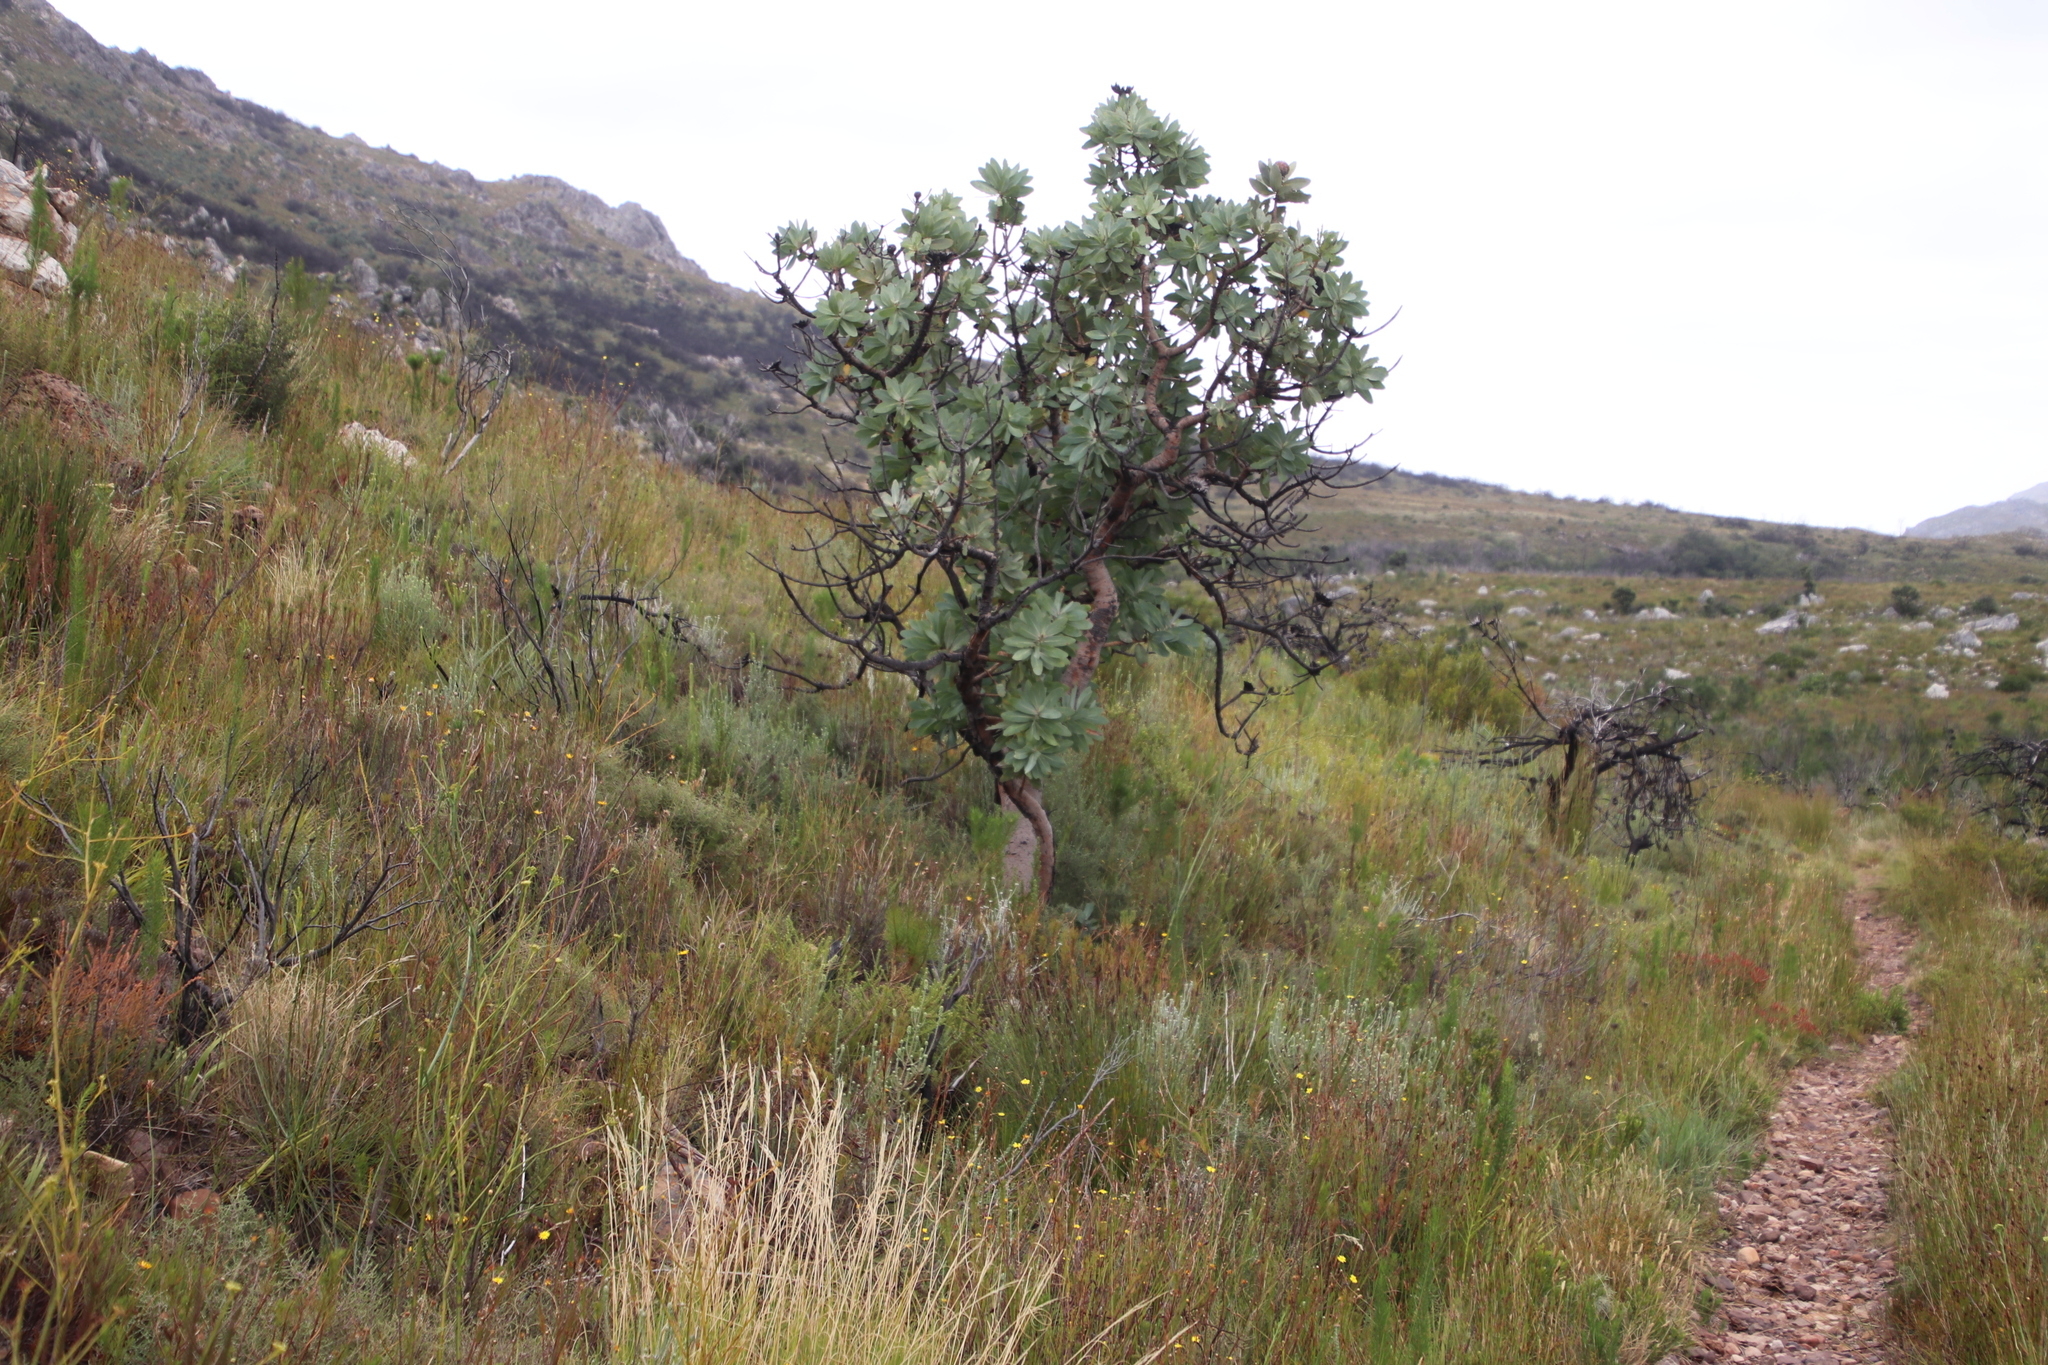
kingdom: Plantae
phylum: Tracheophyta
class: Magnoliopsida
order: Proteales
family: Proteaceae
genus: Protea
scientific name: Protea nitida
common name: Tree protea
